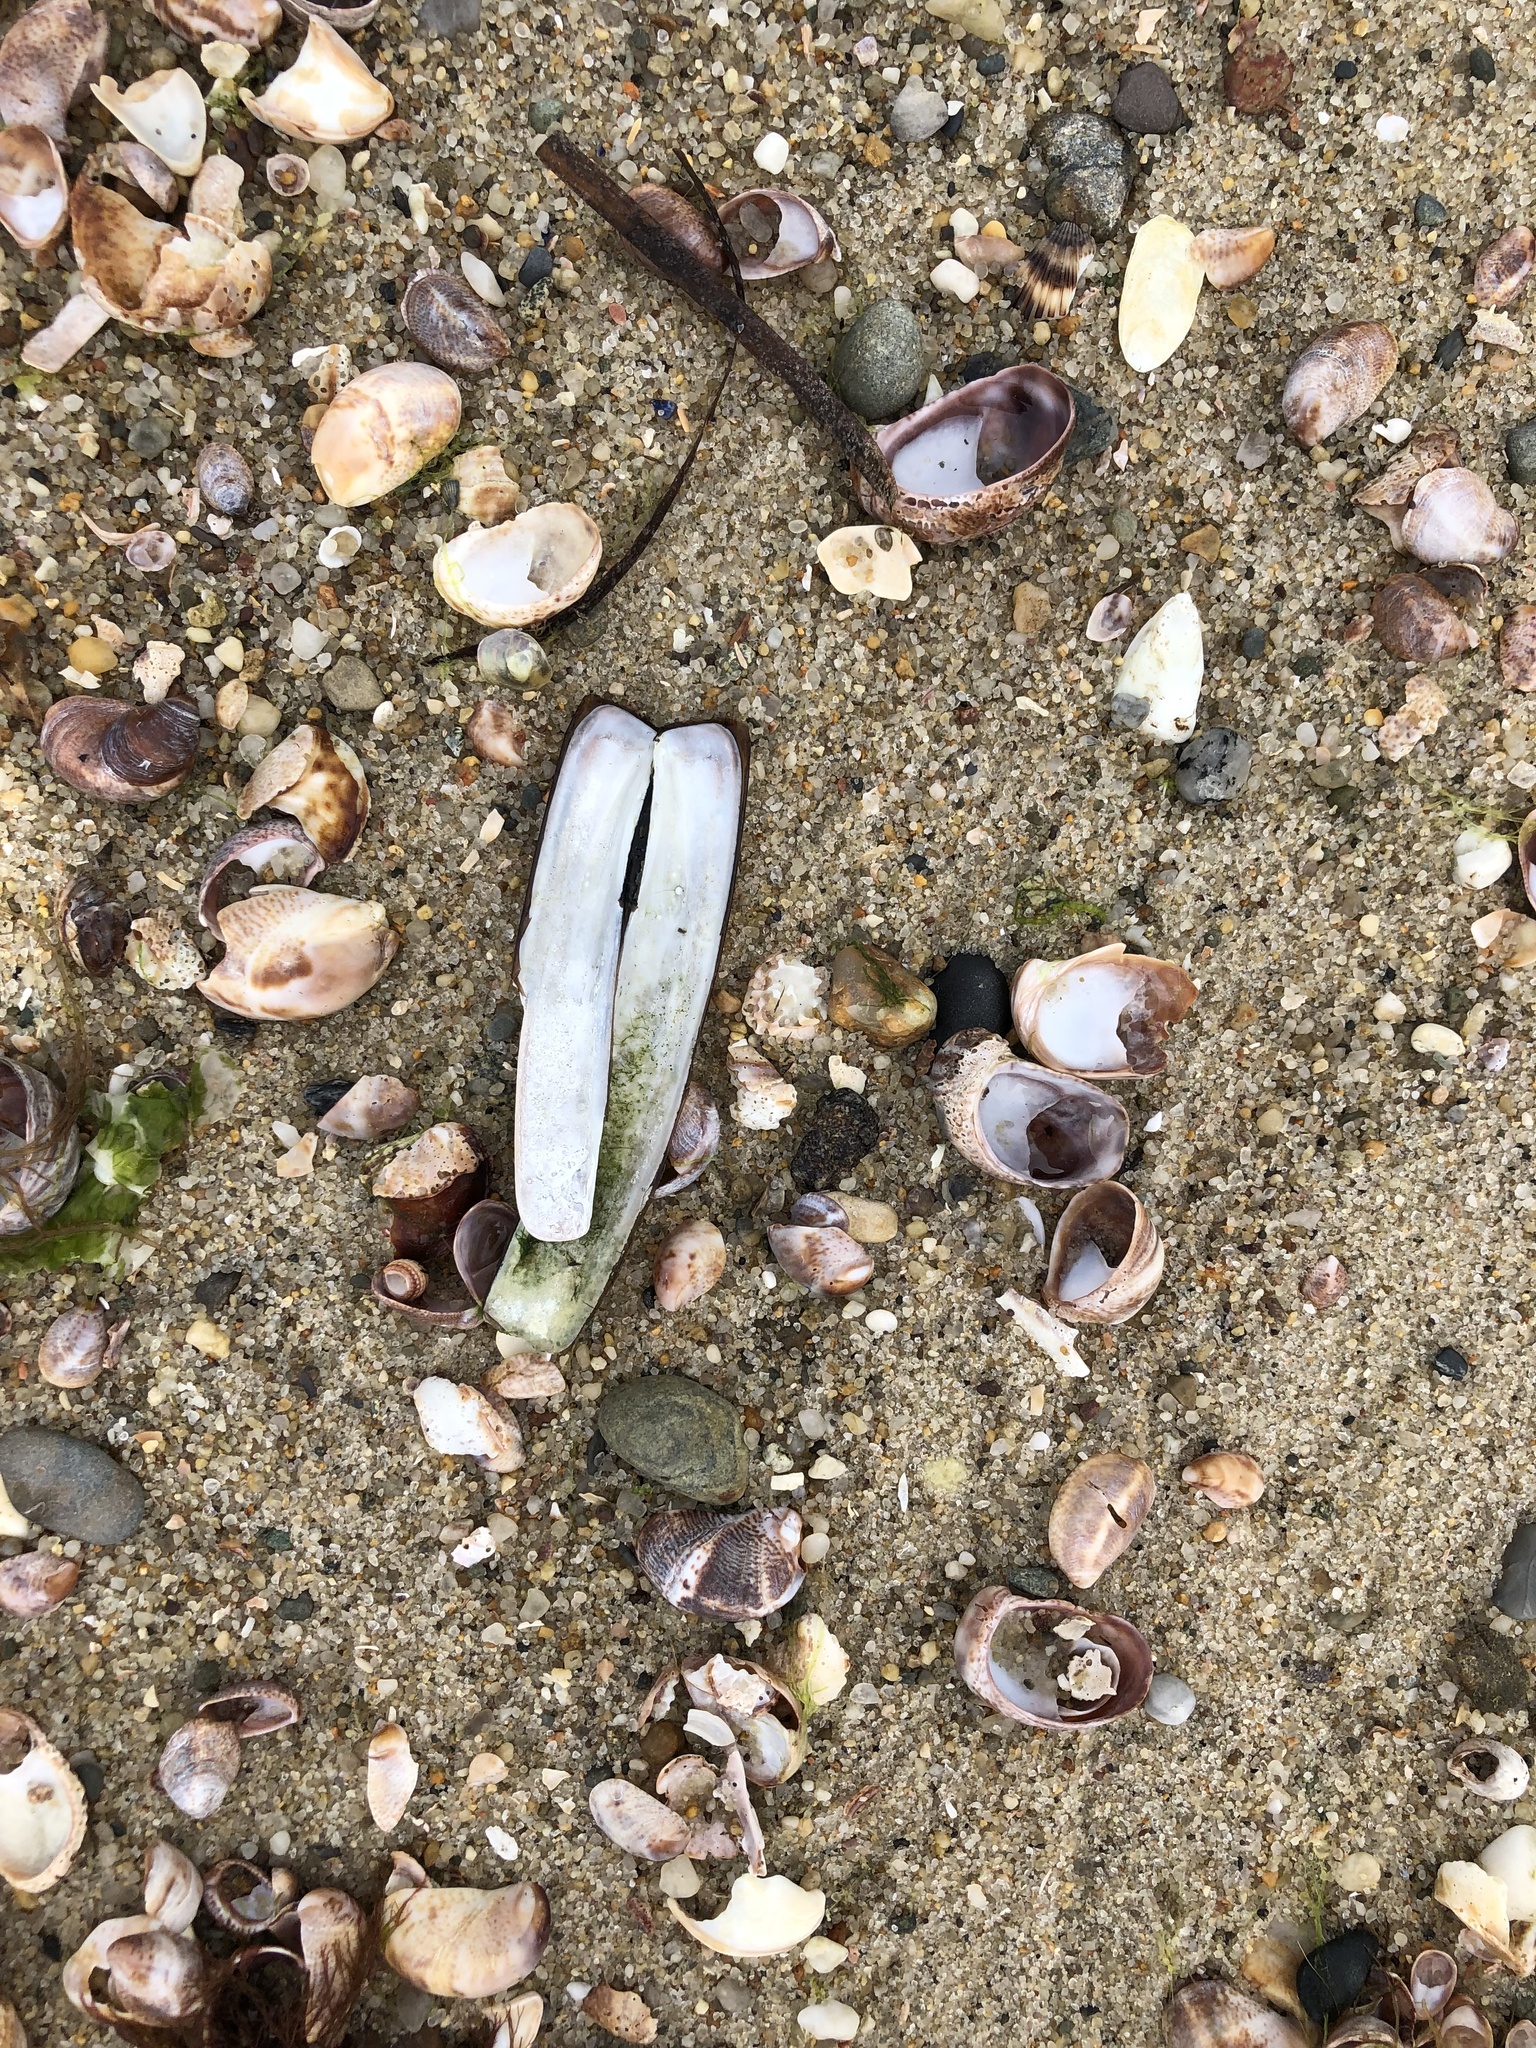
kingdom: Animalia
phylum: Mollusca
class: Bivalvia
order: Adapedonta
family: Pharidae
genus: Ensis
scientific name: Ensis leei
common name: American jack knife clam
